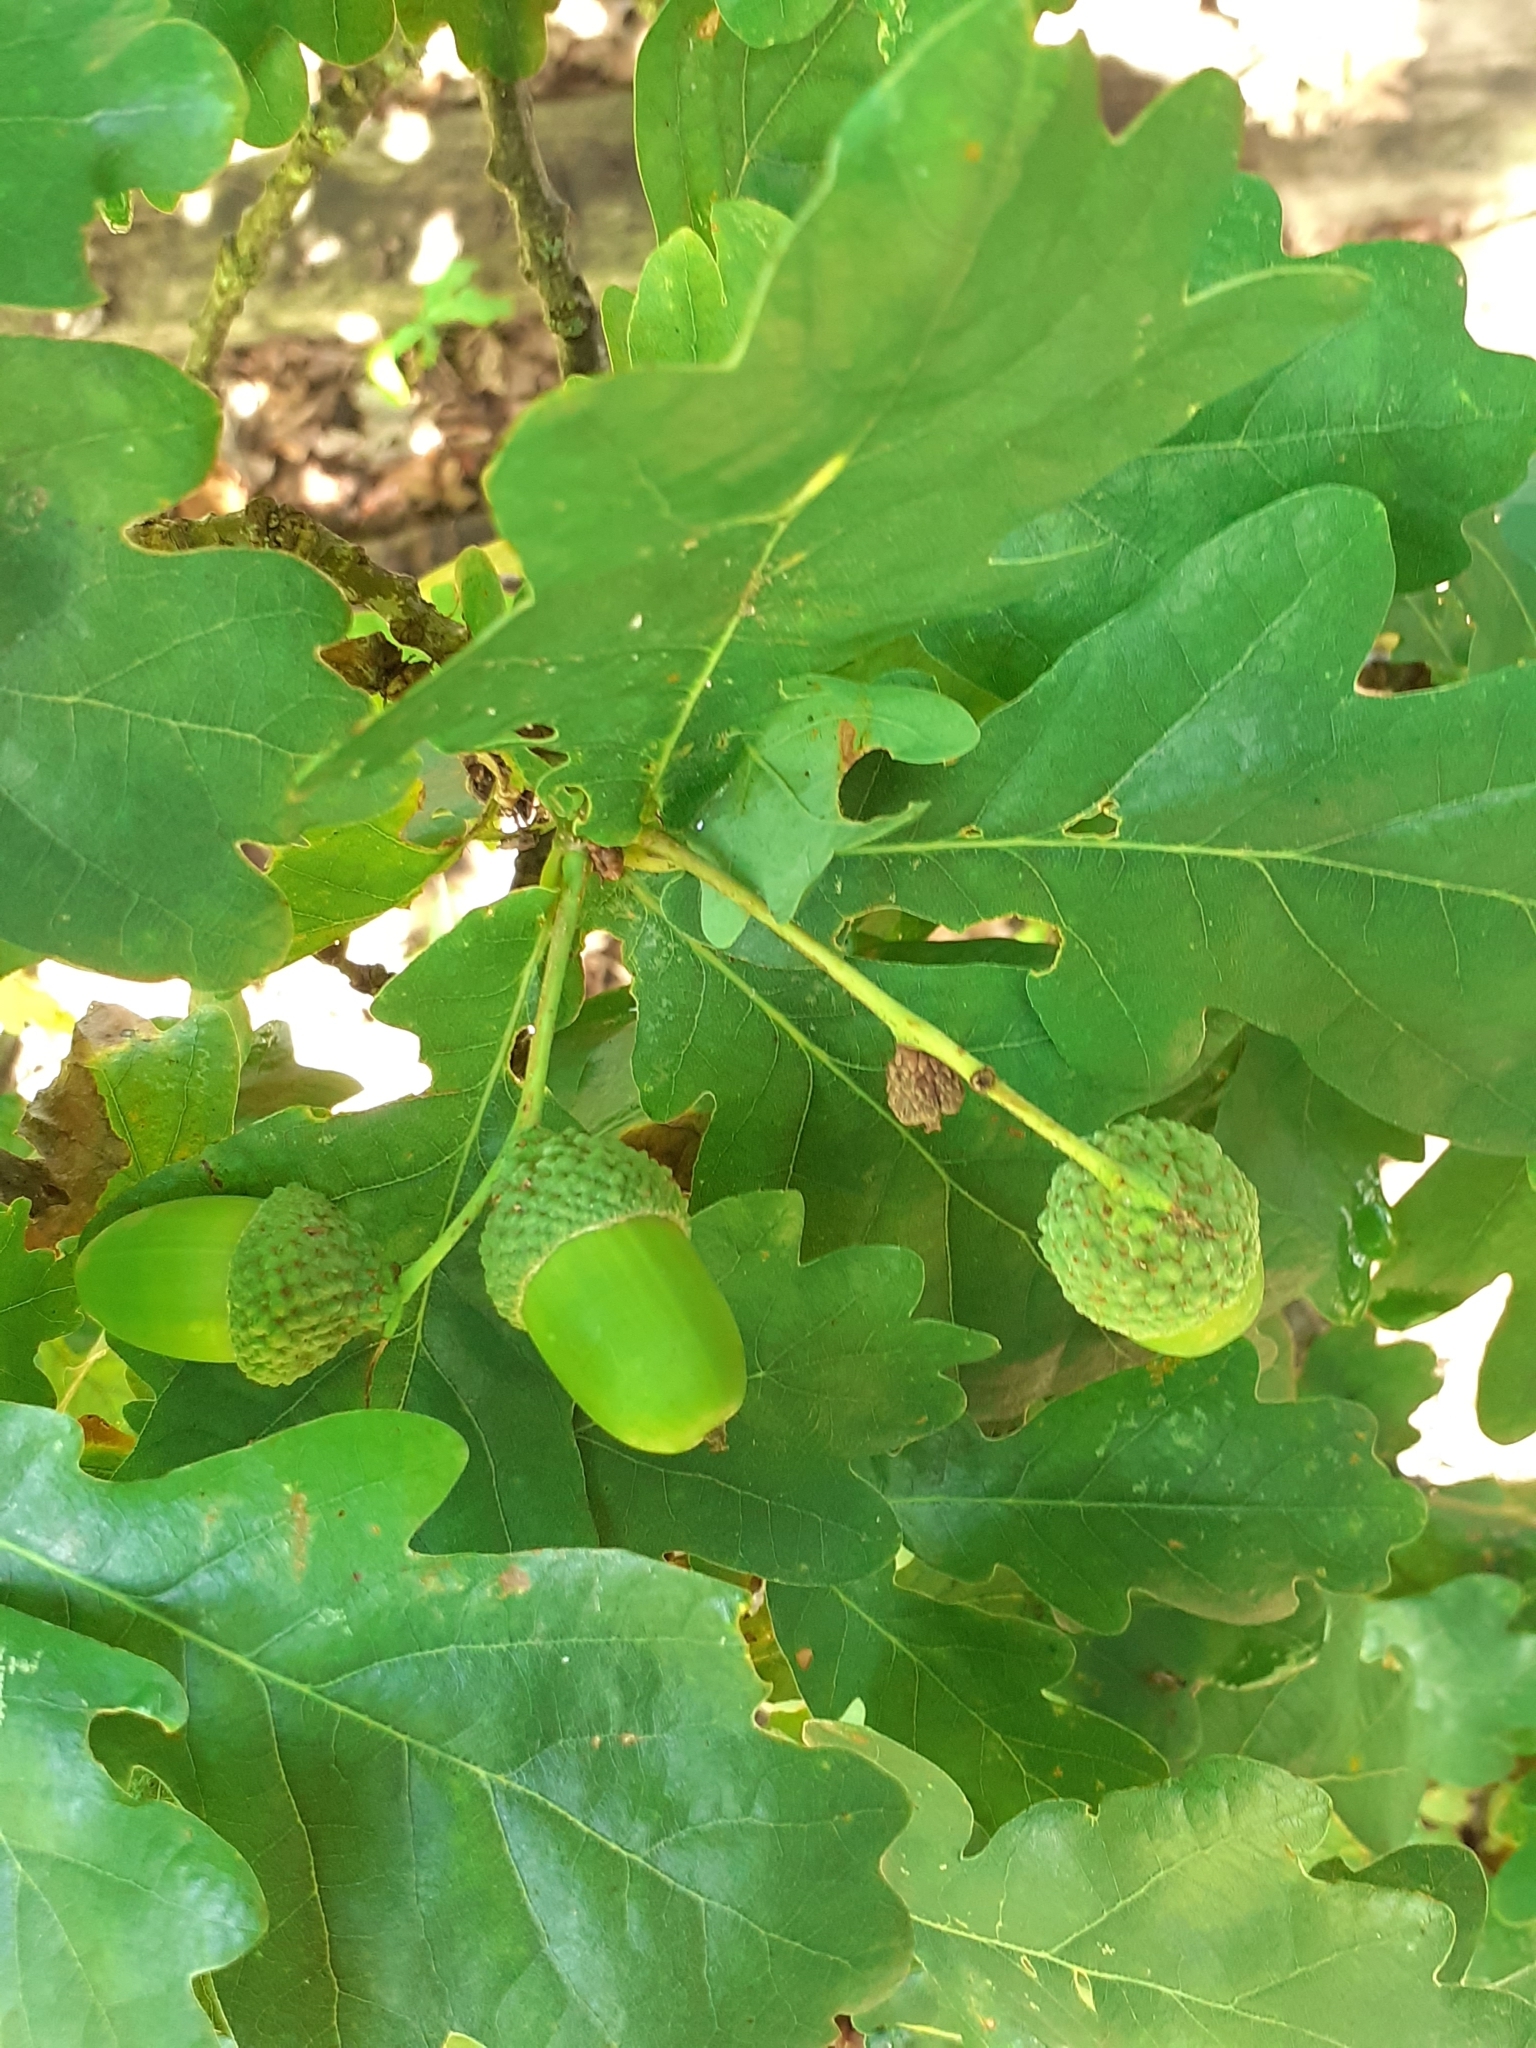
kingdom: Plantae
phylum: Tracheophyta
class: Magnoliopsida
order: Fagales
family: Fagaceae
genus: Quercus
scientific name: Quercus robur
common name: Pedunculate oak
